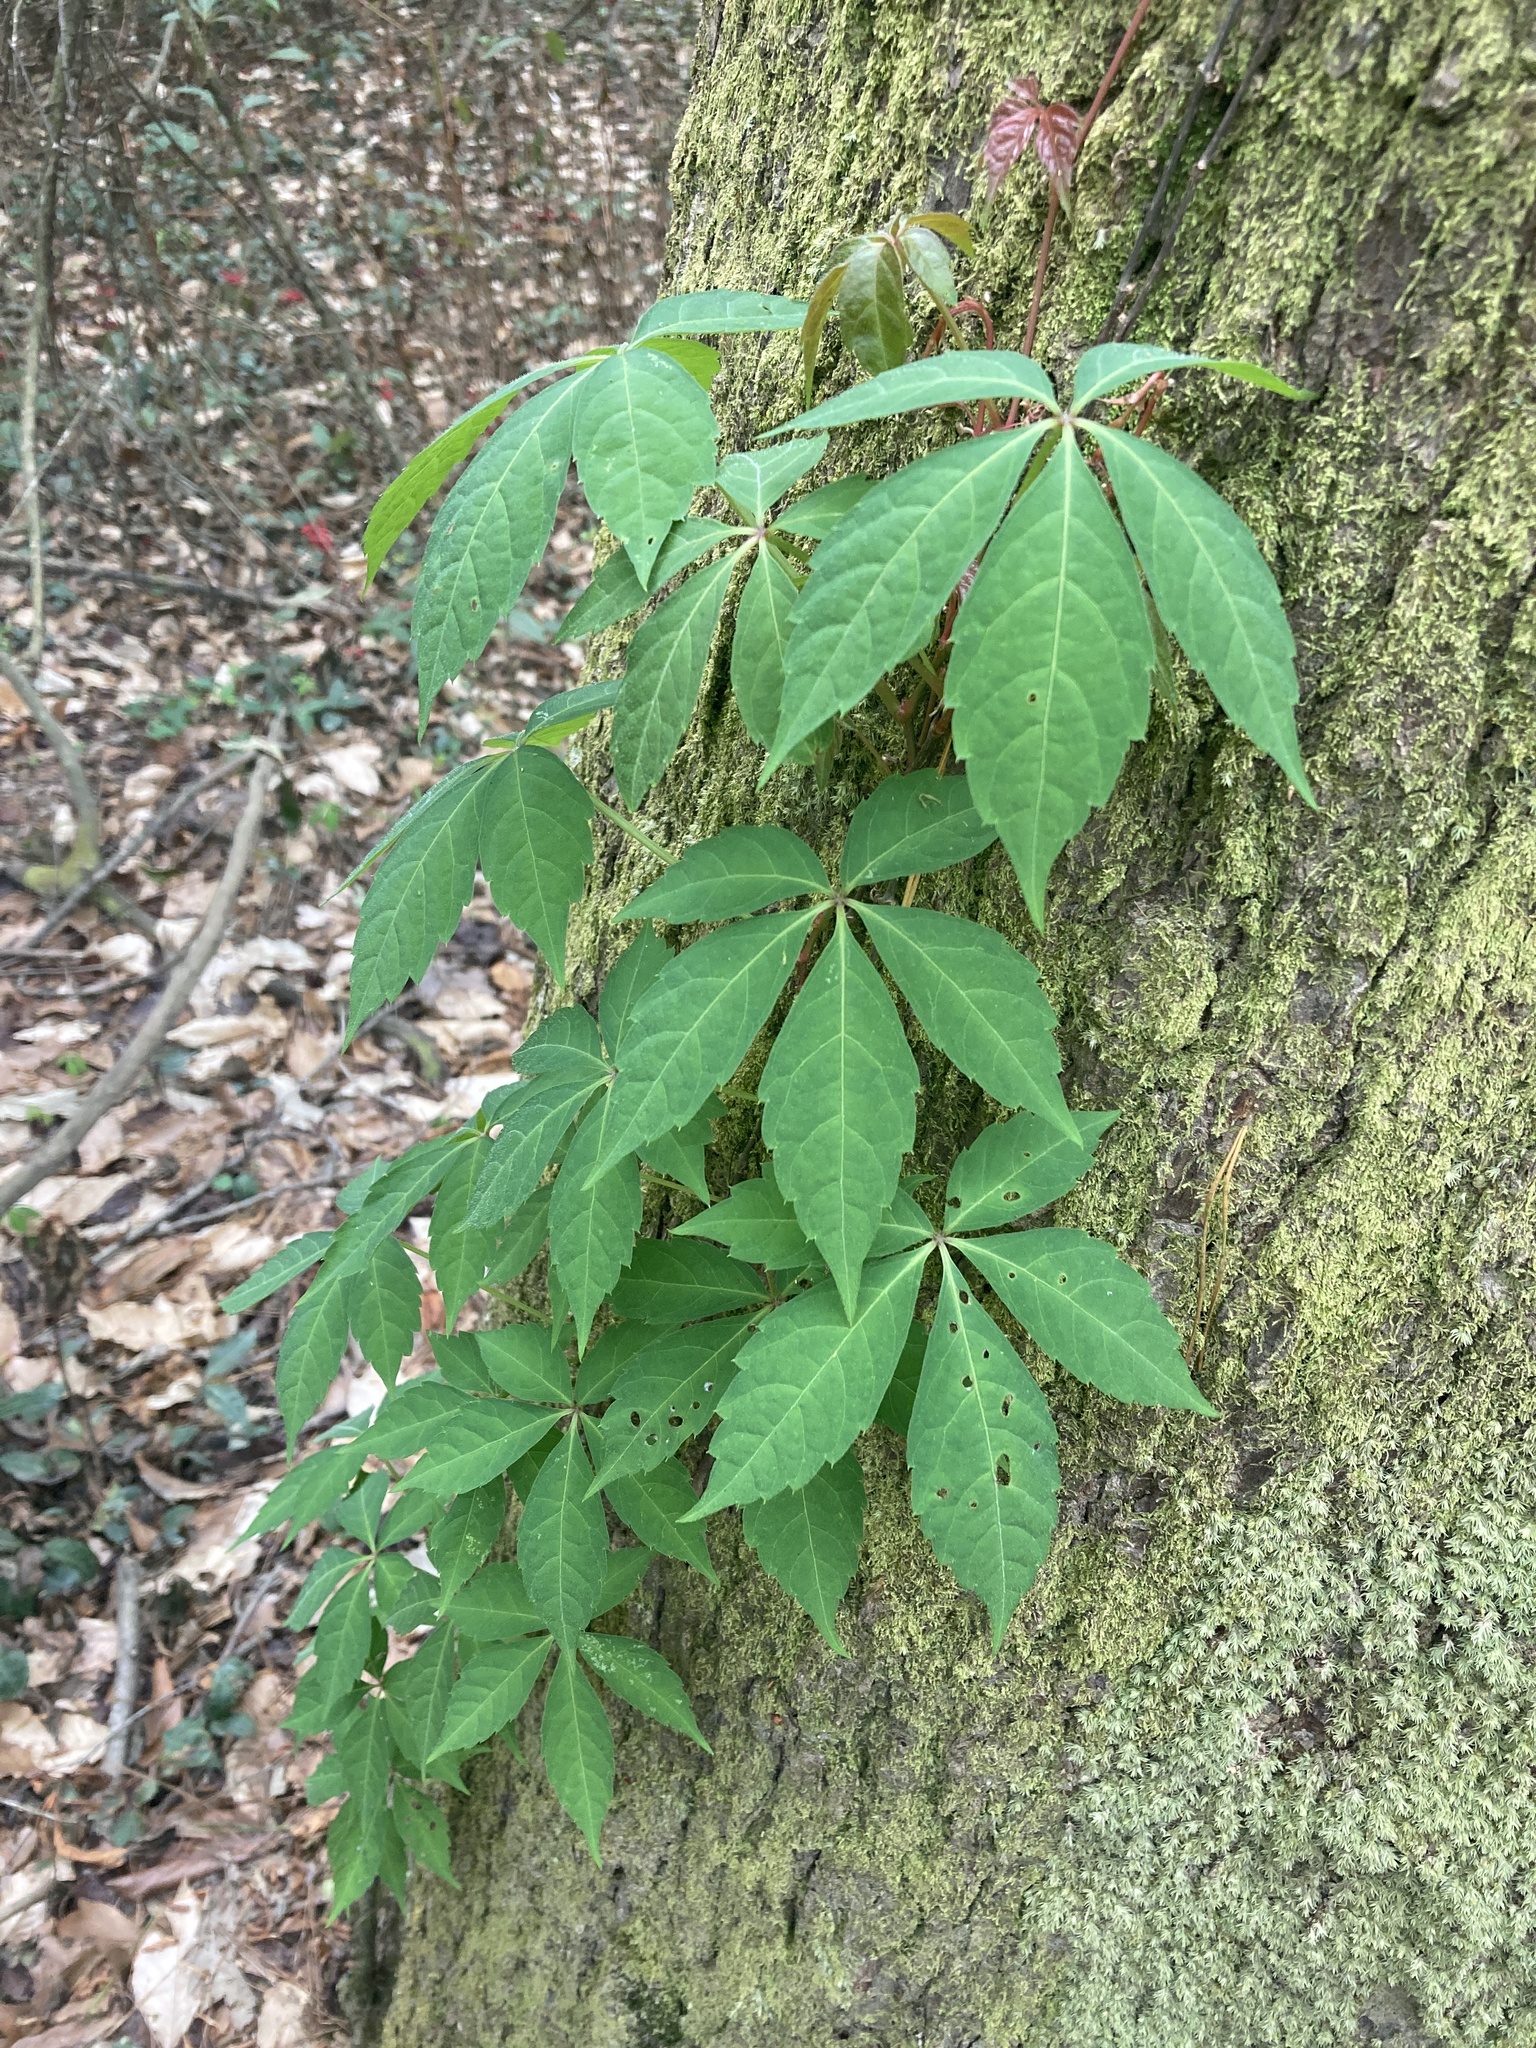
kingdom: Plantae
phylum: Tracheophyta
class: Magnoliopsida
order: Vitales
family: Vitaceae
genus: Parthenocissus
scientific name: Parthenocissus quinquefolia
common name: Virginia-creeper
